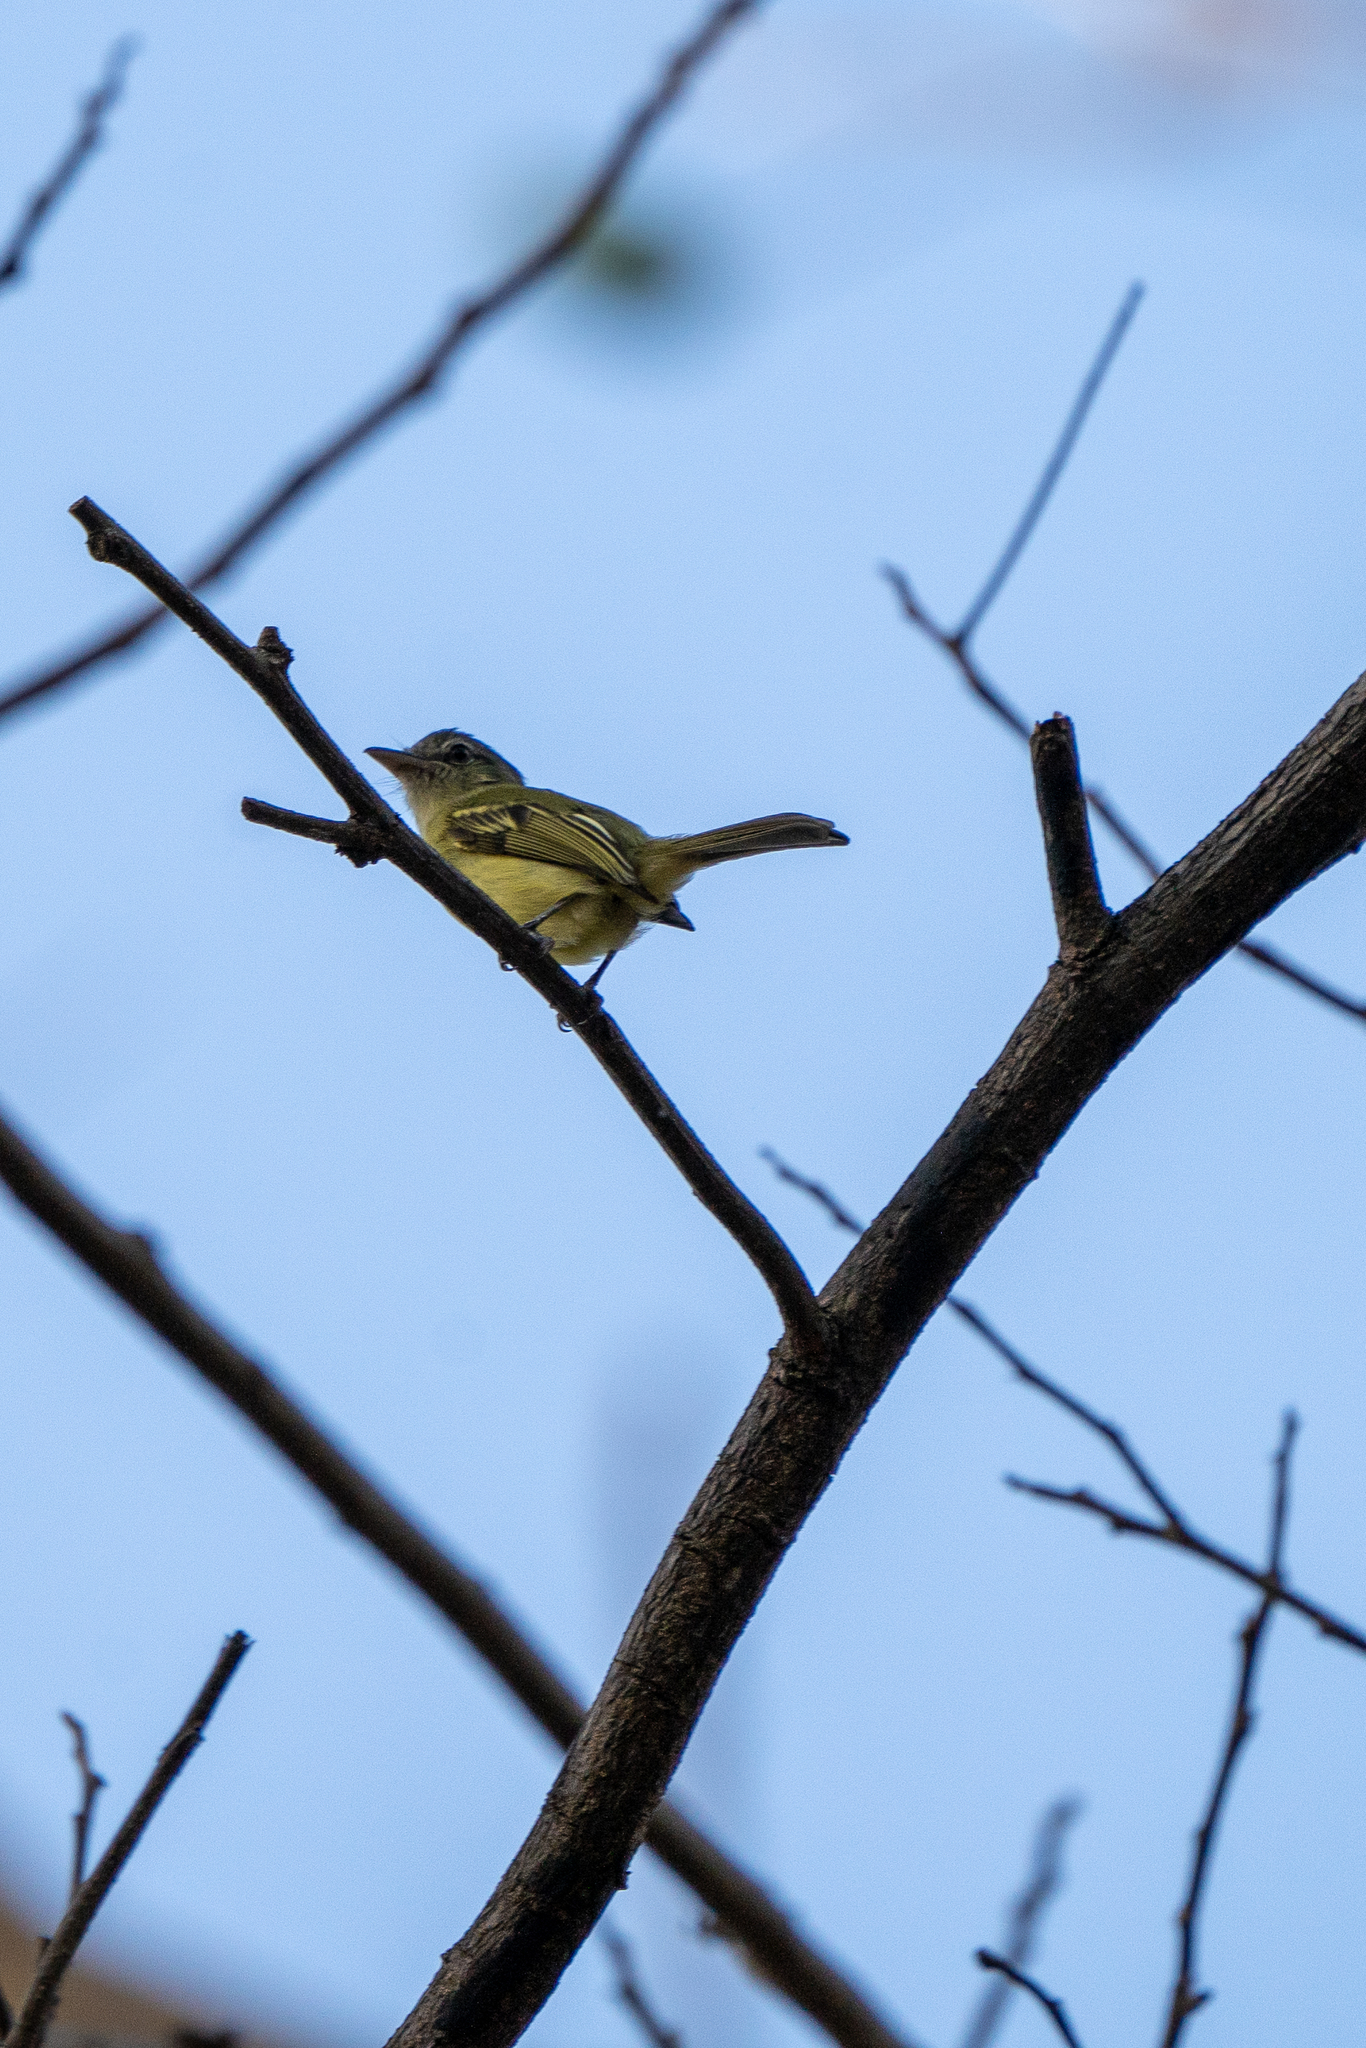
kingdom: Animalia
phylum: Chordata
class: Aves
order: Passeriformes
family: Tyrannidae
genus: Tolmomyias
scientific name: Tolmomyias sulphurescens
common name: Yellow-olive flycatcher
